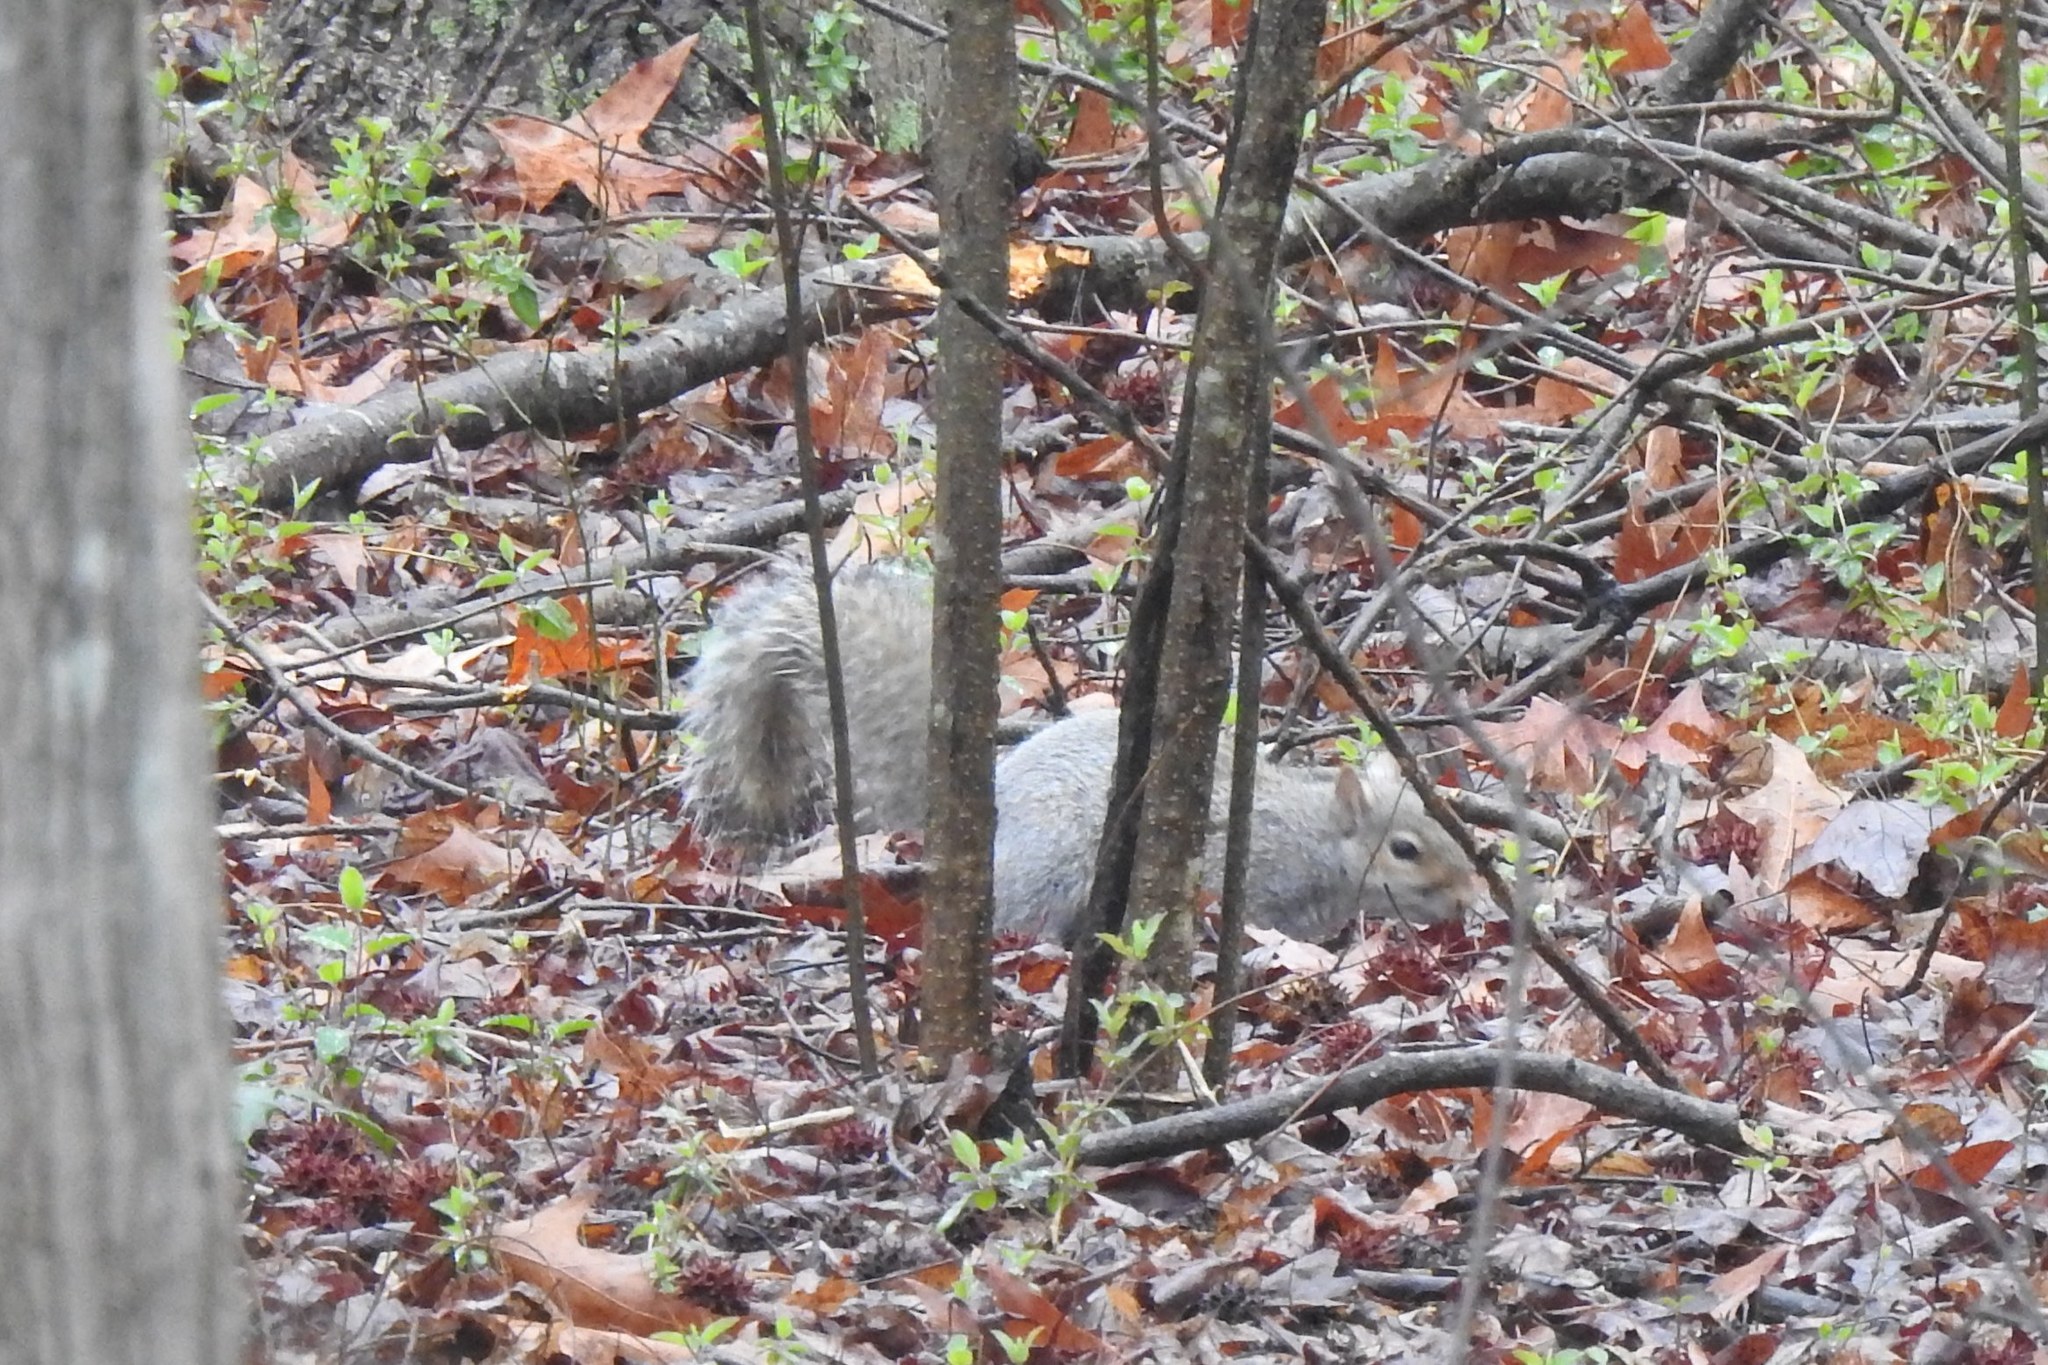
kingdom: Animalia
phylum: Chordata
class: Mammalia
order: Rodentia
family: Sciuridae
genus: Sciurus
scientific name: Sciurus carolinensis
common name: Eastern gray squirrel
